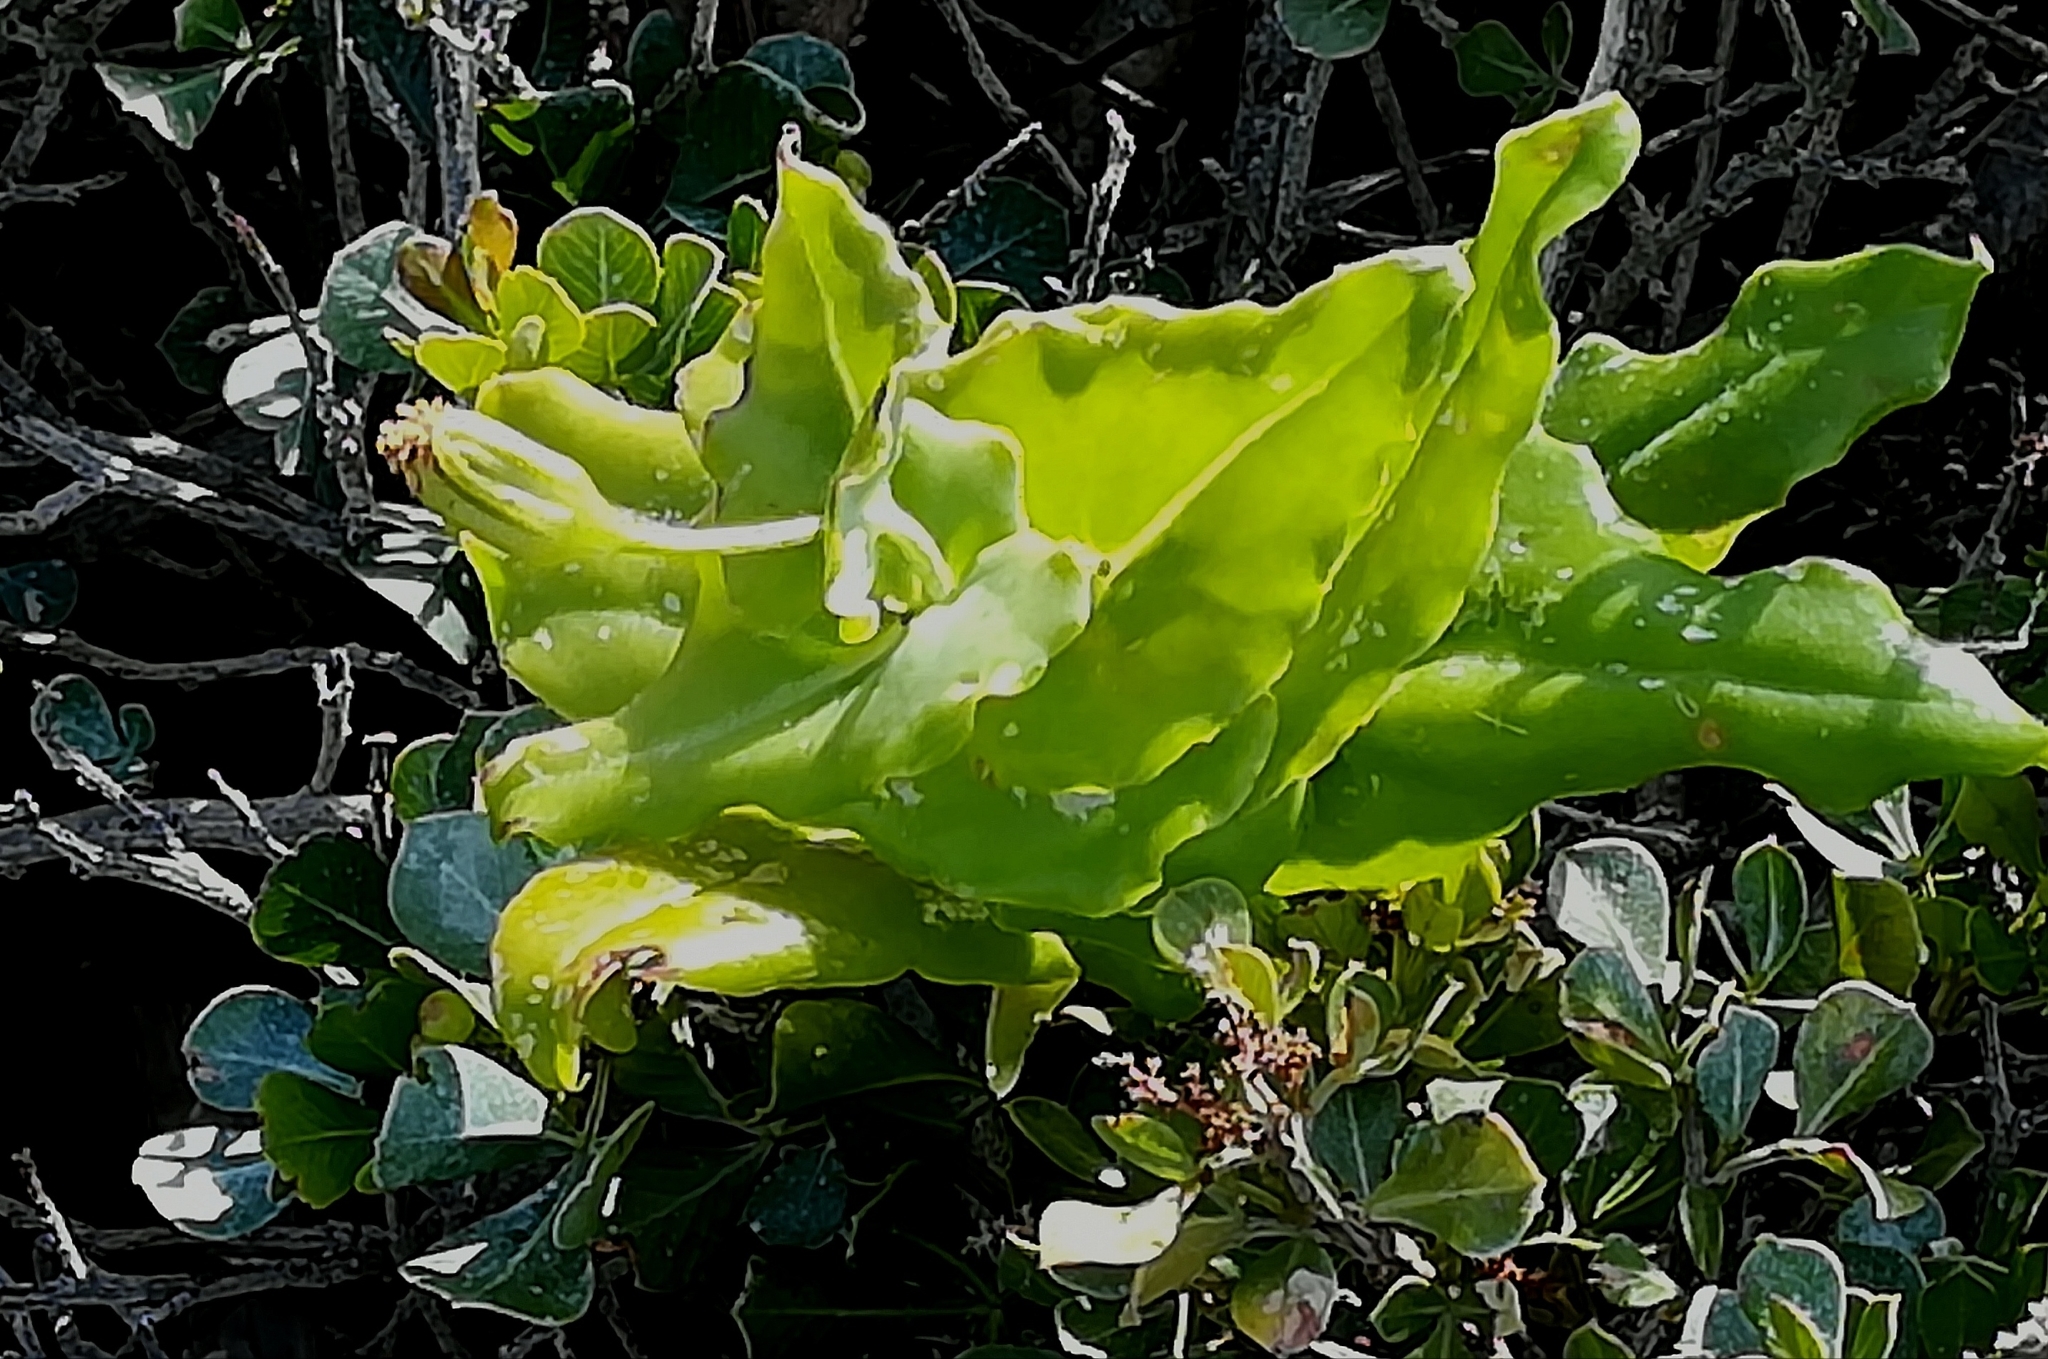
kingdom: Plantae
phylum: Tracheophyta
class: Magnoliopsida
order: Asterales
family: Asteraceae
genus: Othonna
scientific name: Othonna undulosa
